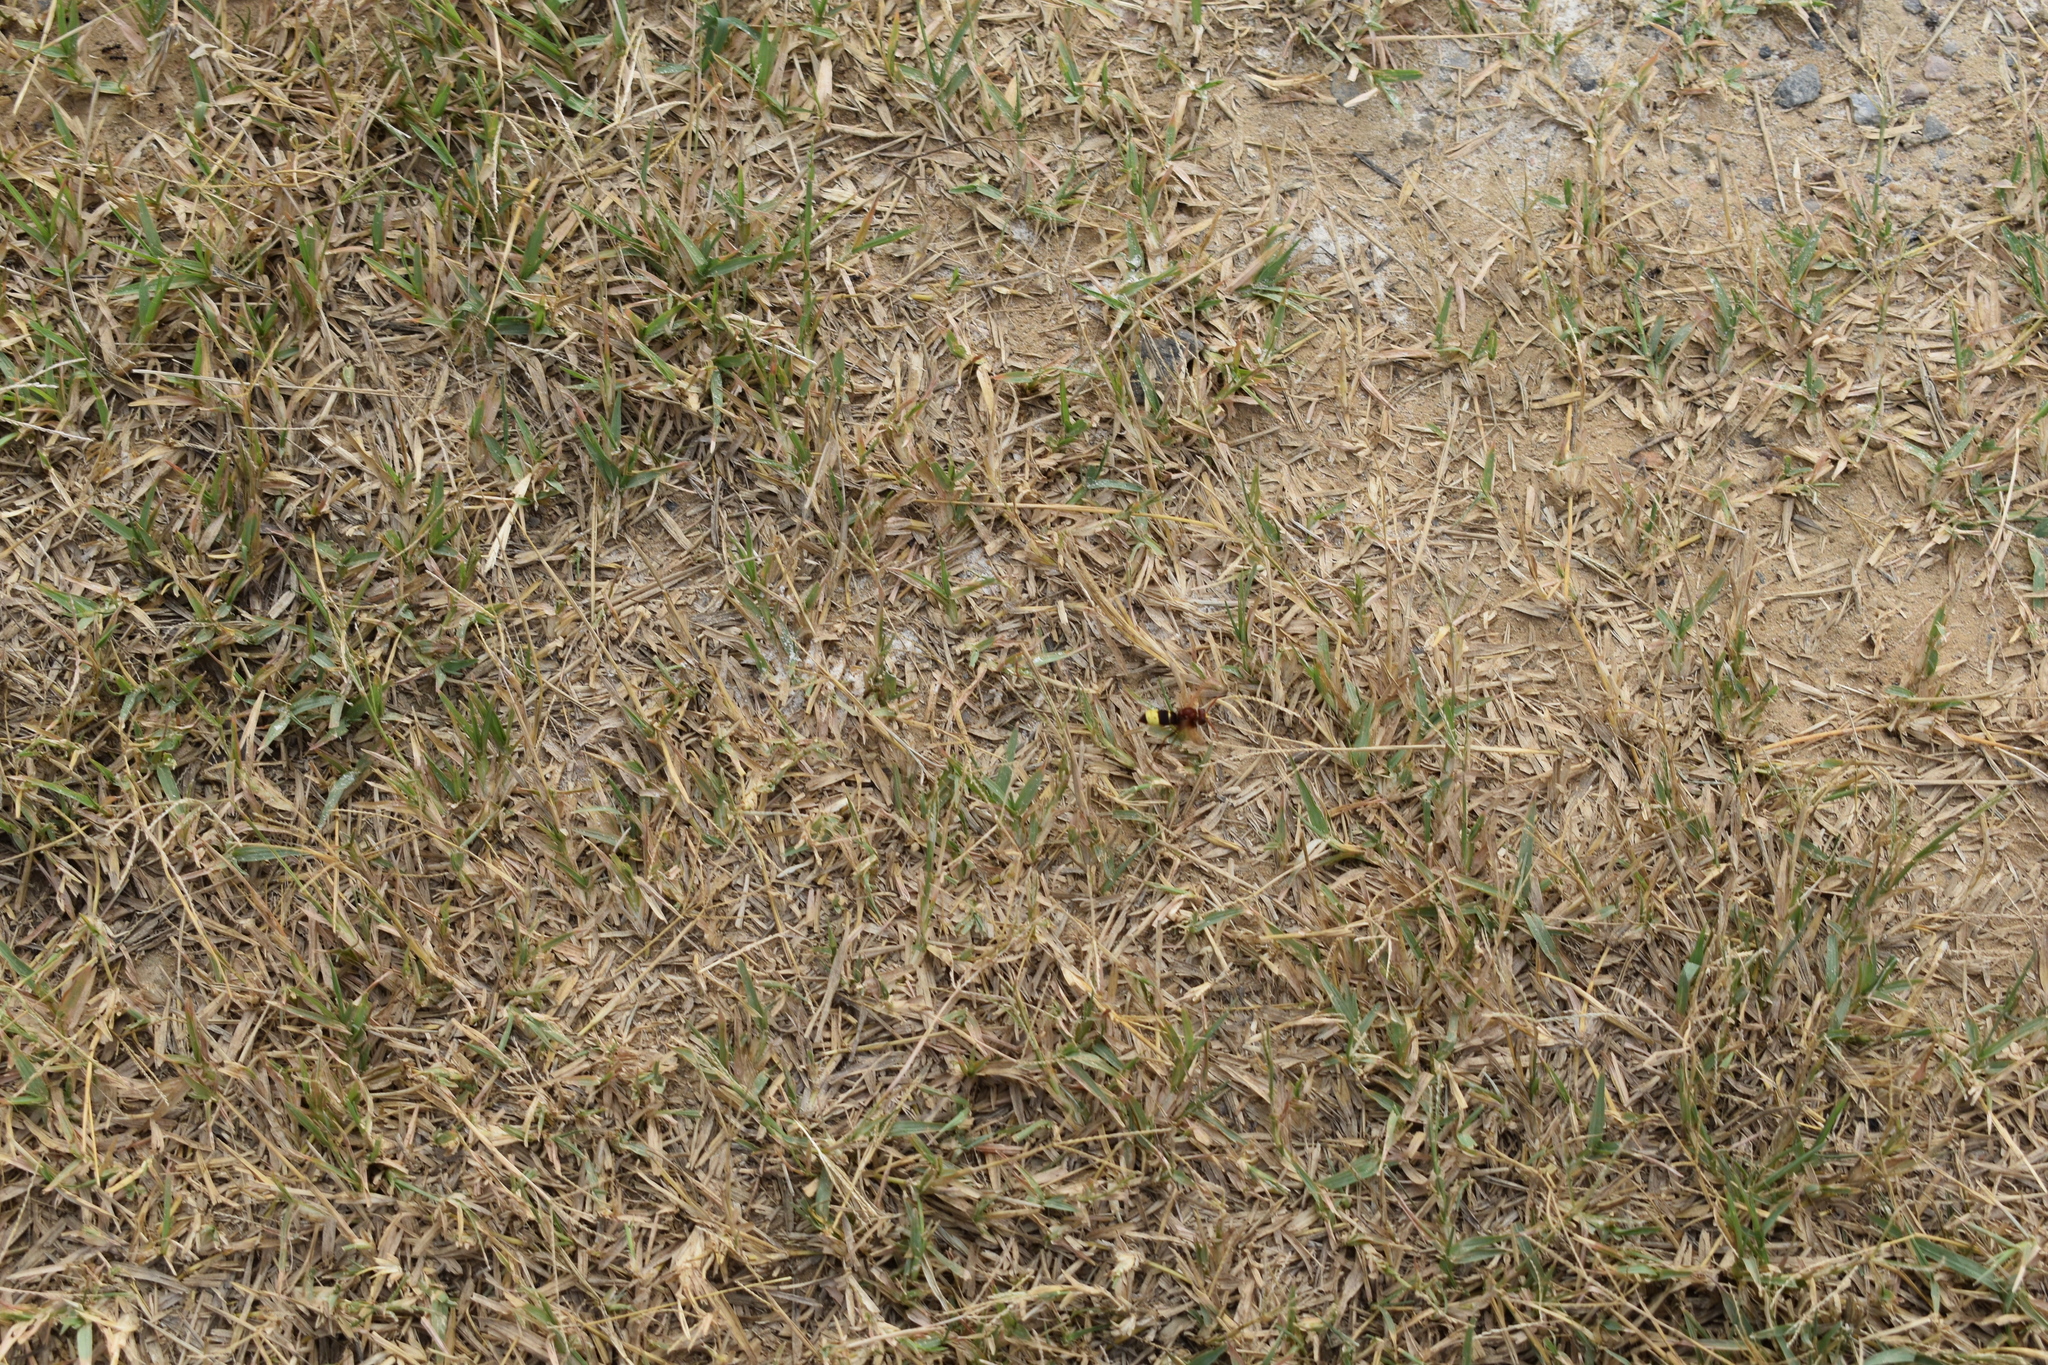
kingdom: Animalia
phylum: Arthropoda
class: Insecta
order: Hymenoptera
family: Vespidae
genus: Vespa
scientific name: Vespa orientalis
